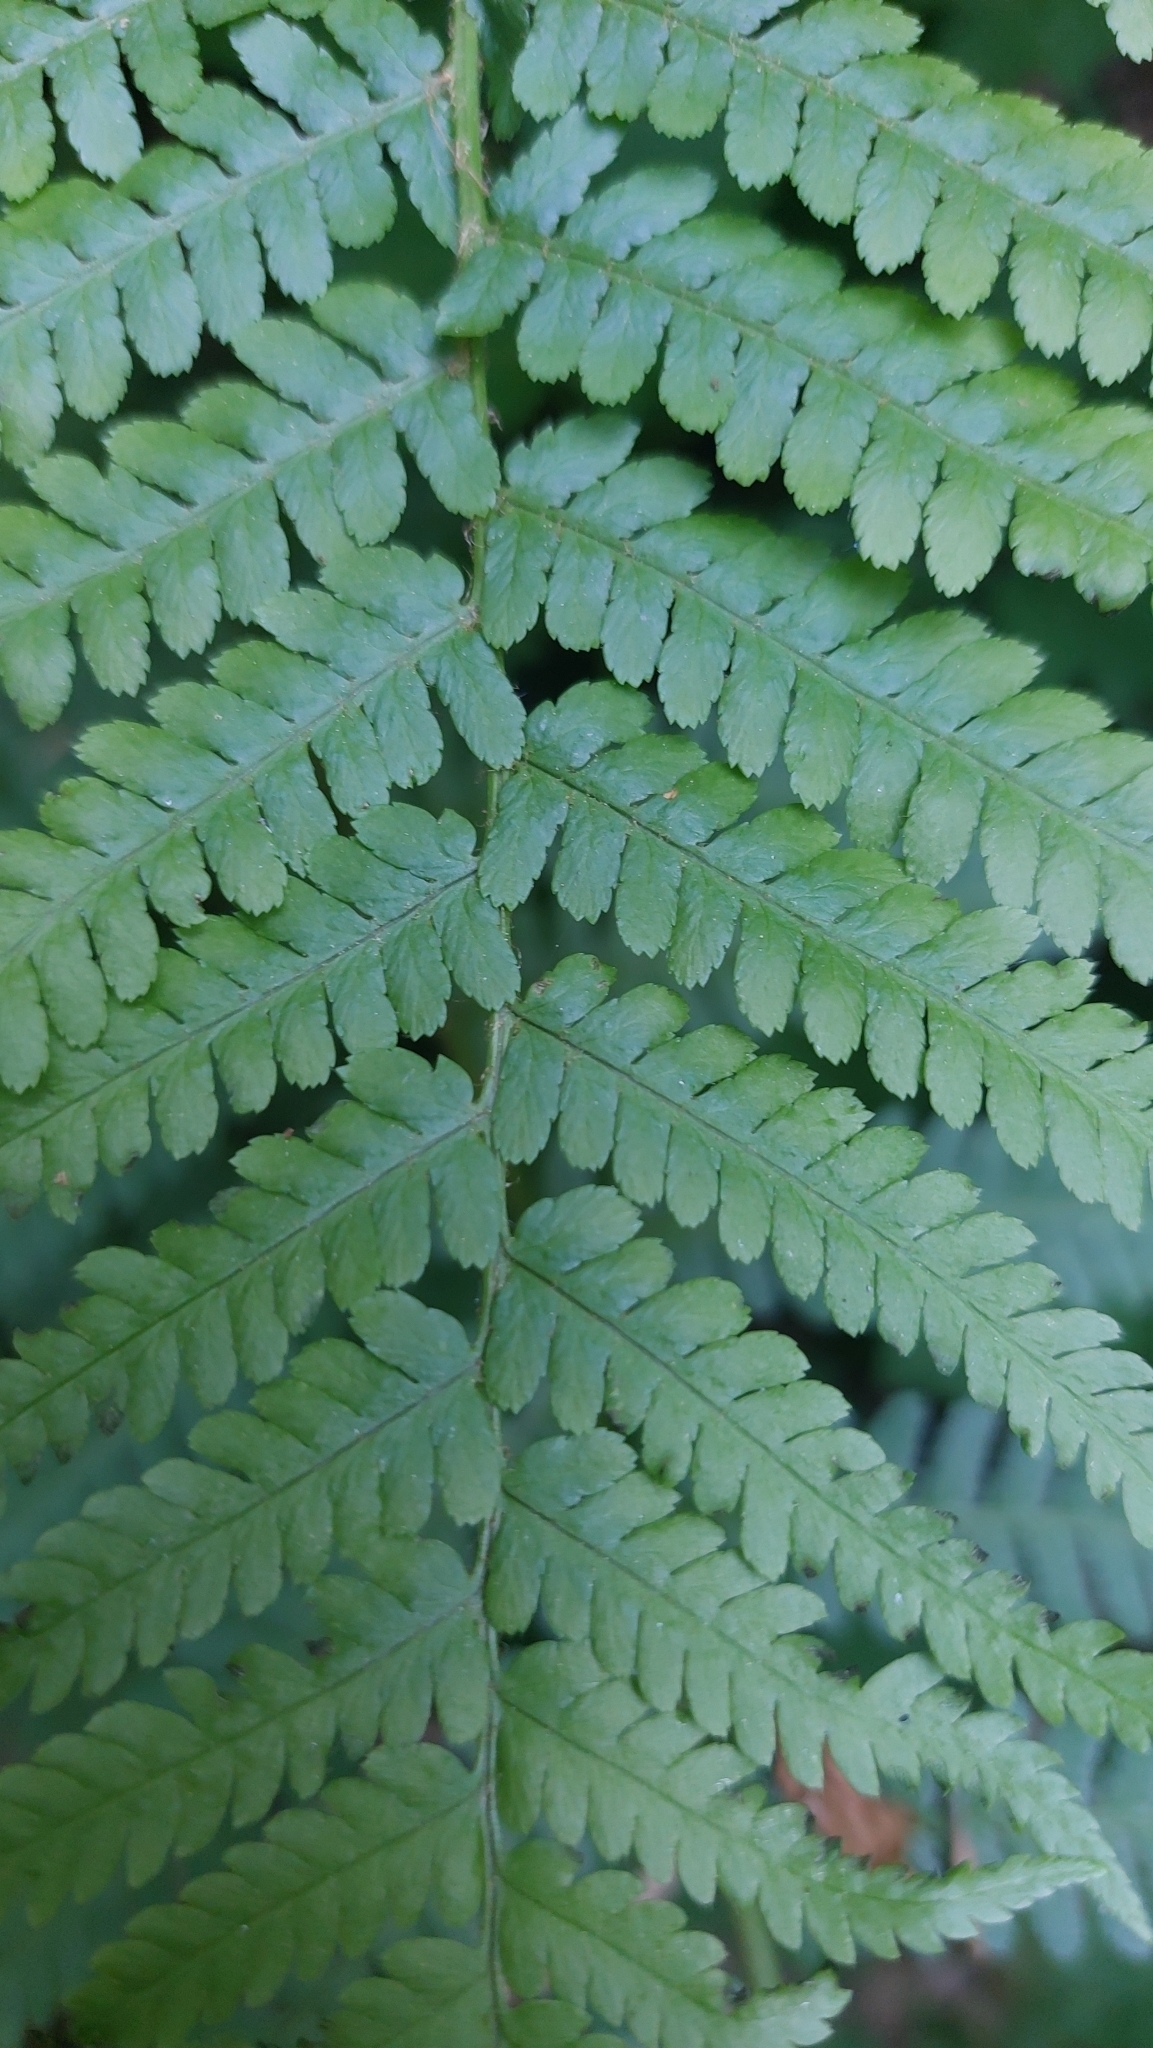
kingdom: Plantae
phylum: Tracheophyta
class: Polypodiopsida
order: Polypodiales
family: Dryopteridaceae
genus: Dryopteris
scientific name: Dryopteris filix-mas
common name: Male fern
